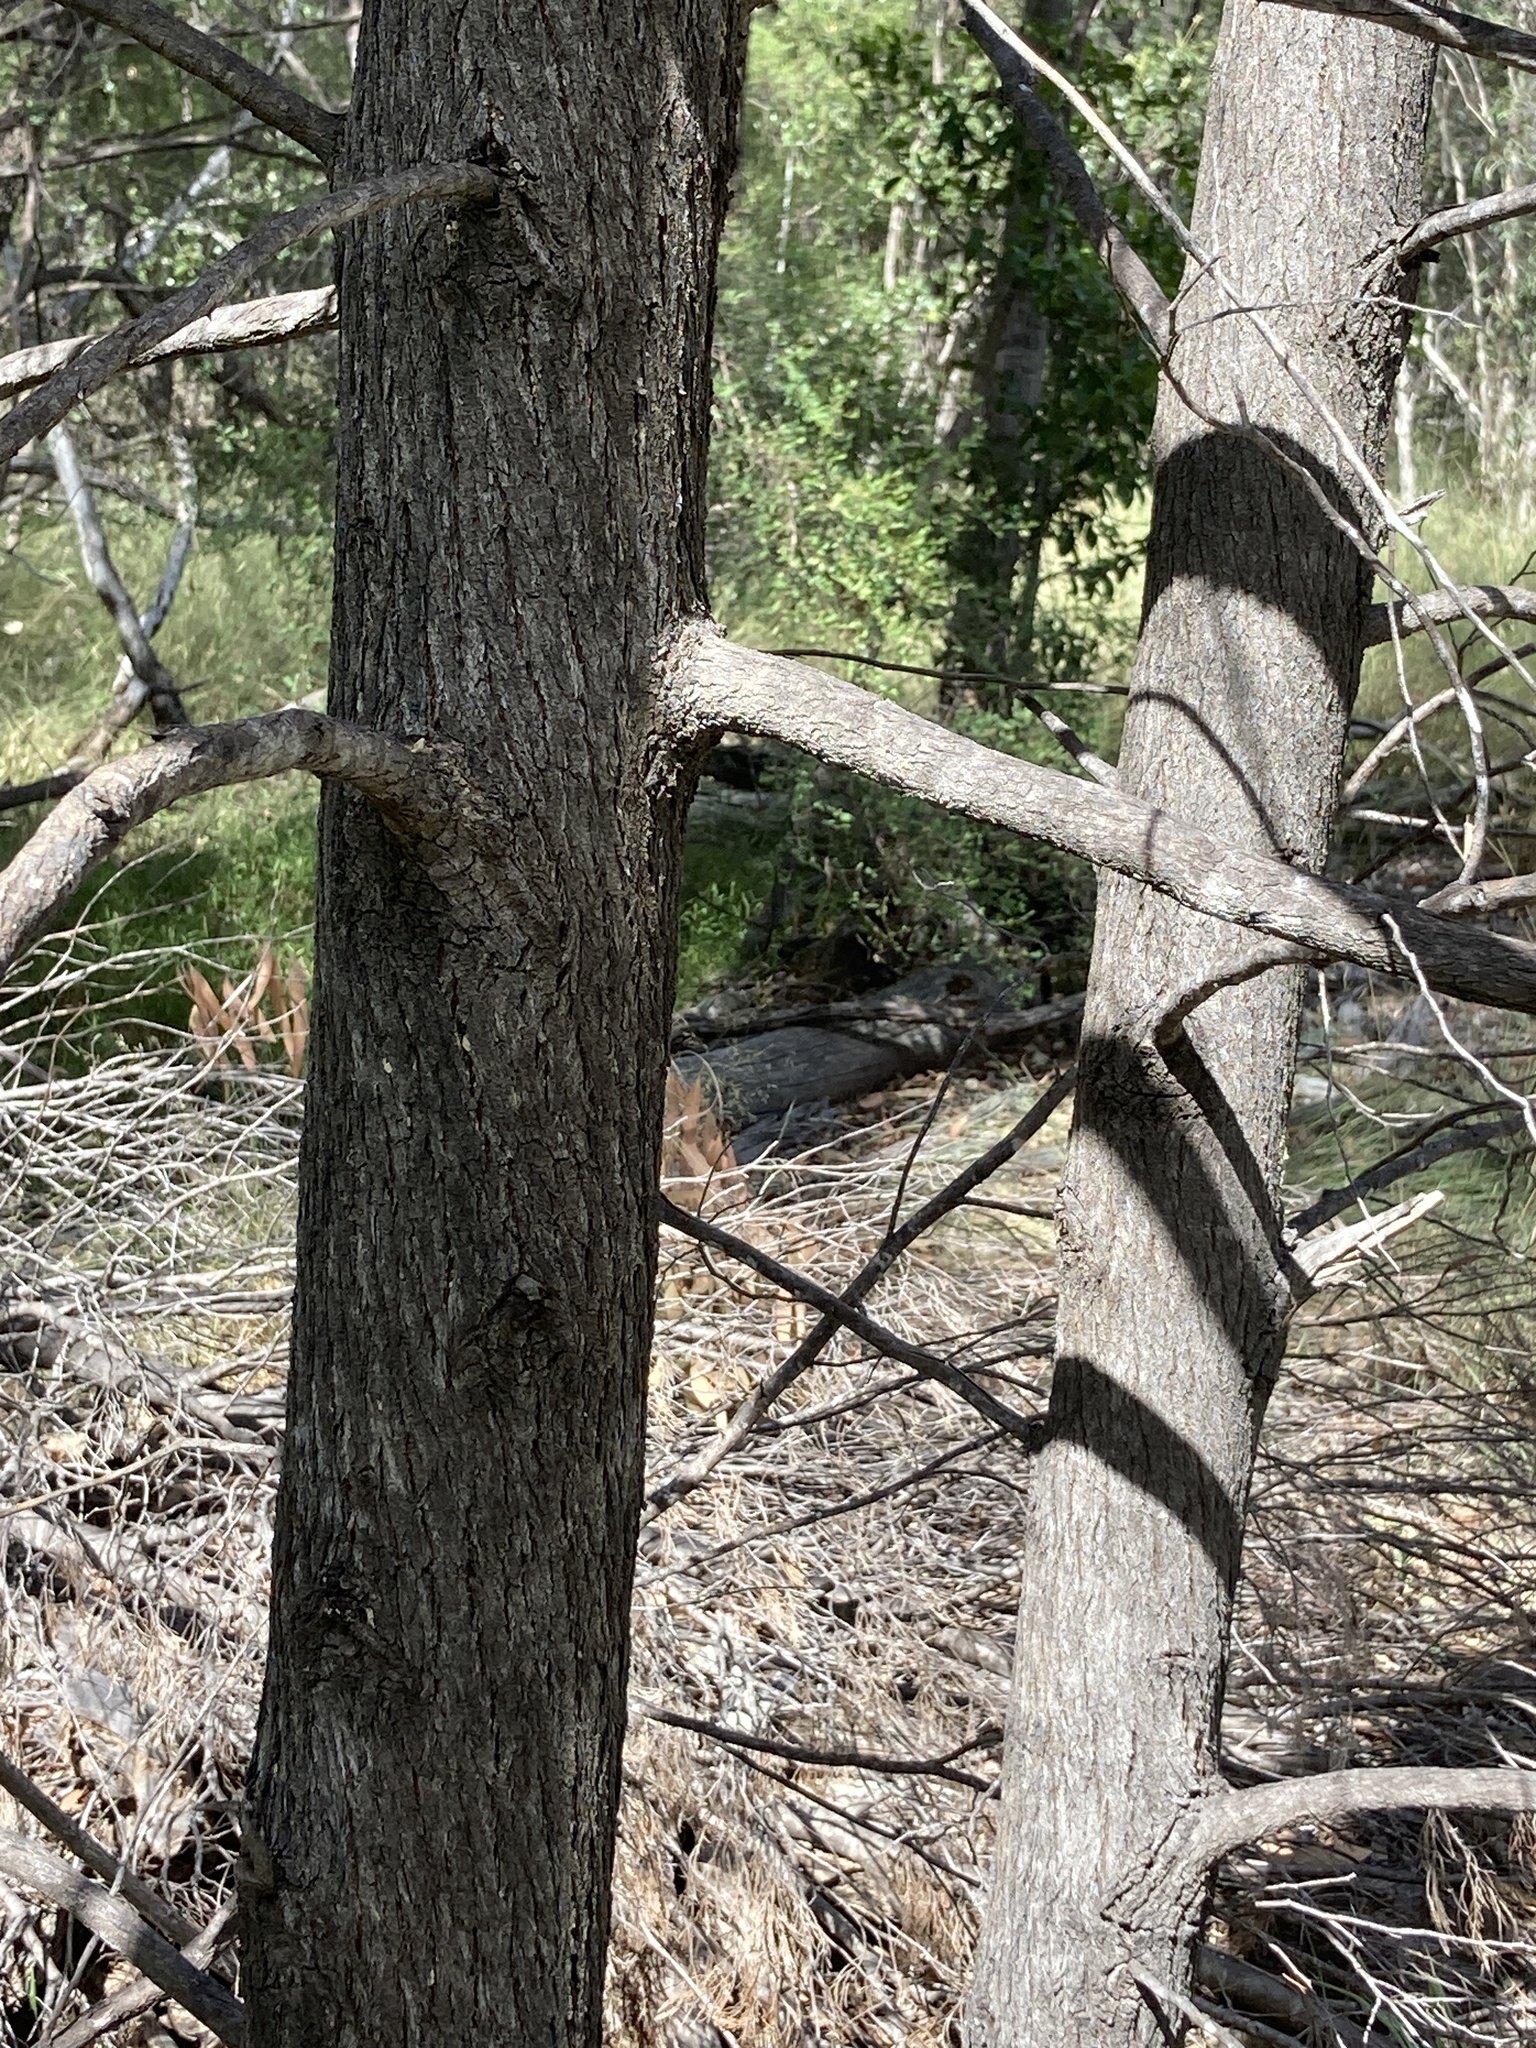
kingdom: Plantae
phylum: Tracheophyta
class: Pinopsida
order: Pinales
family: Cupressaceae
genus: Callitris
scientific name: Callitris columellaris
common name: White cypress-pine
